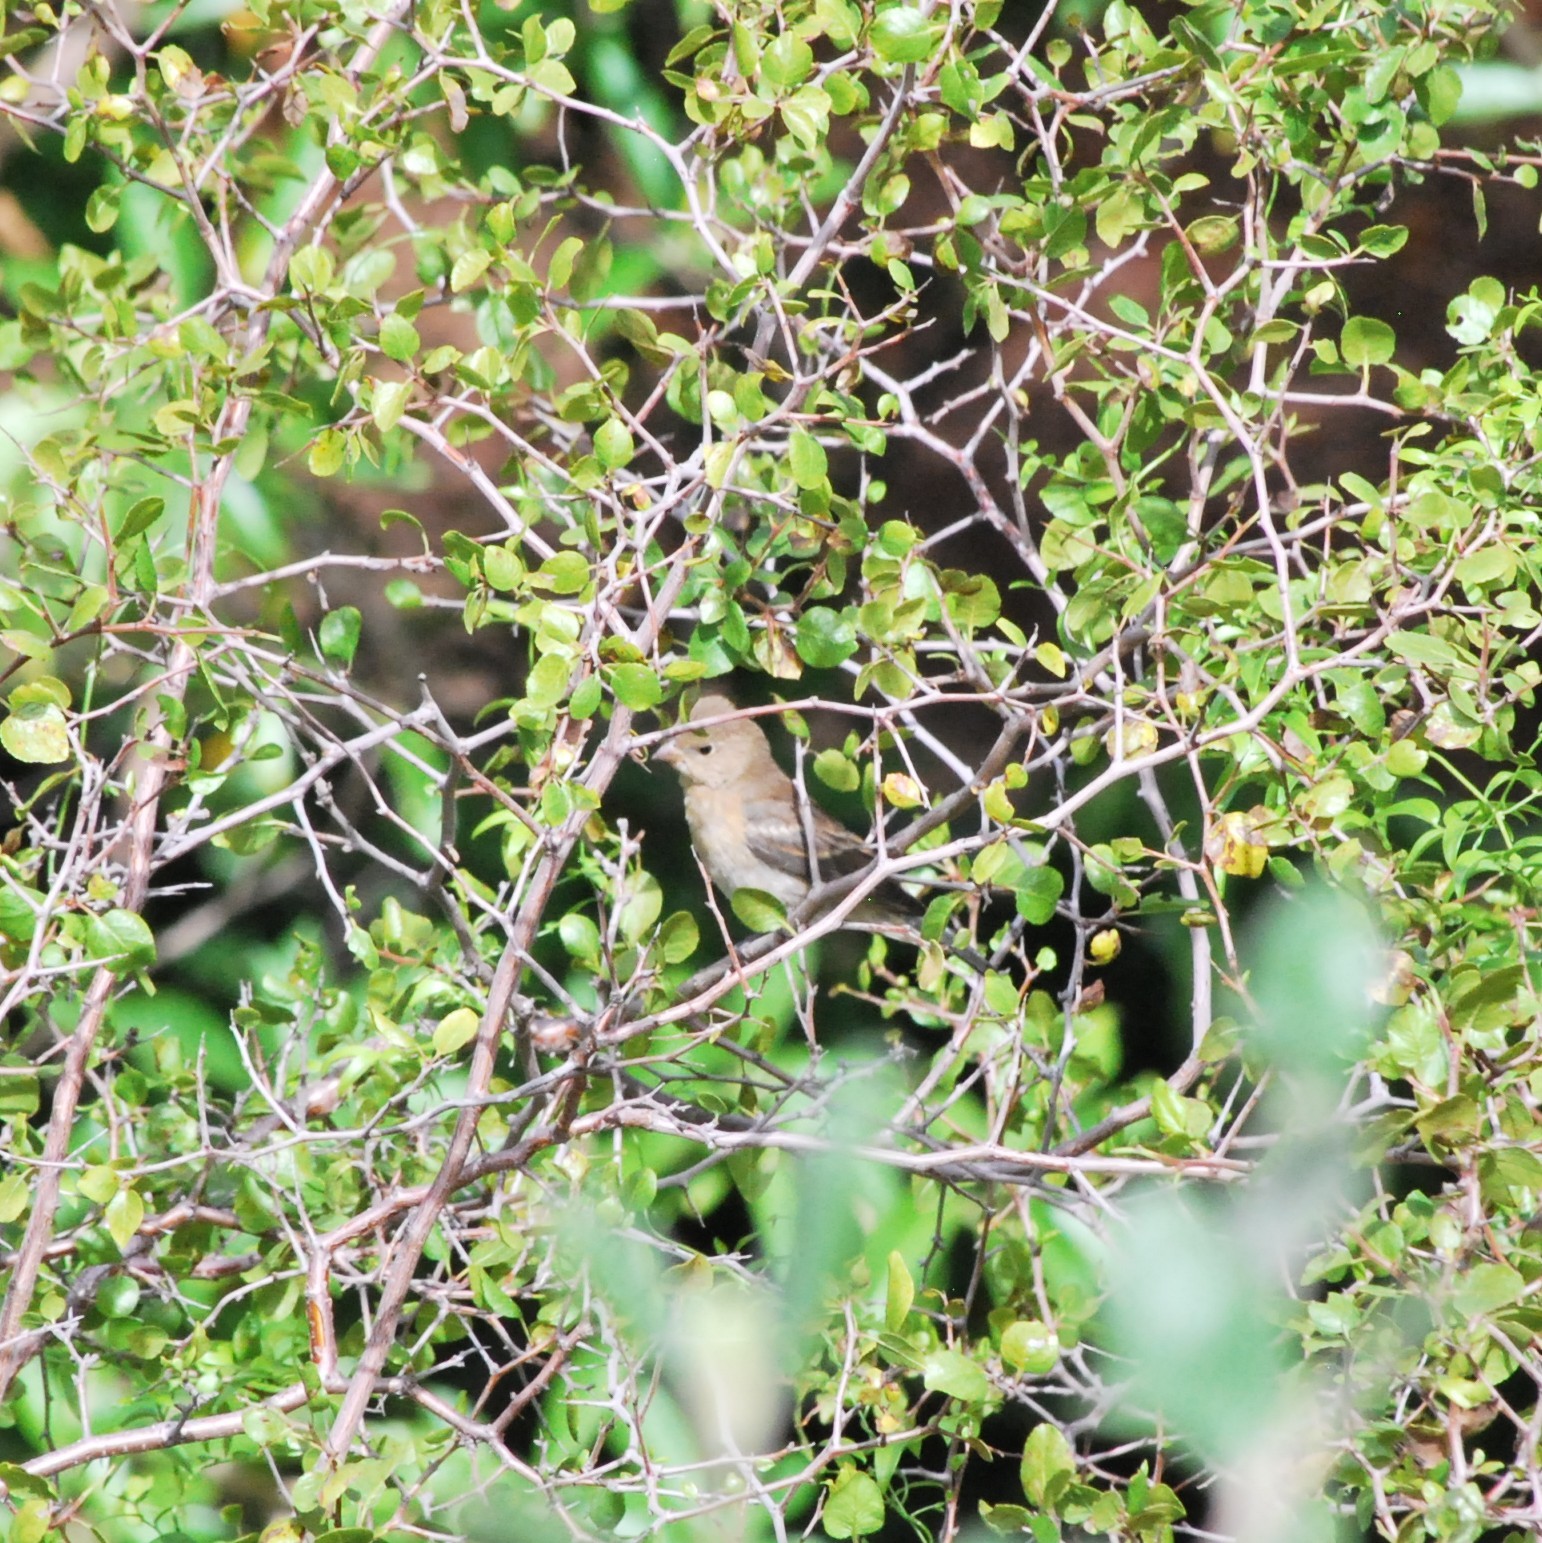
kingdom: Animalia
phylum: Chordata
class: Aves
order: Passeriformes
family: Cardinalidae
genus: Passerina
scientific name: Passerina amoena
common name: Lazuli bunting
